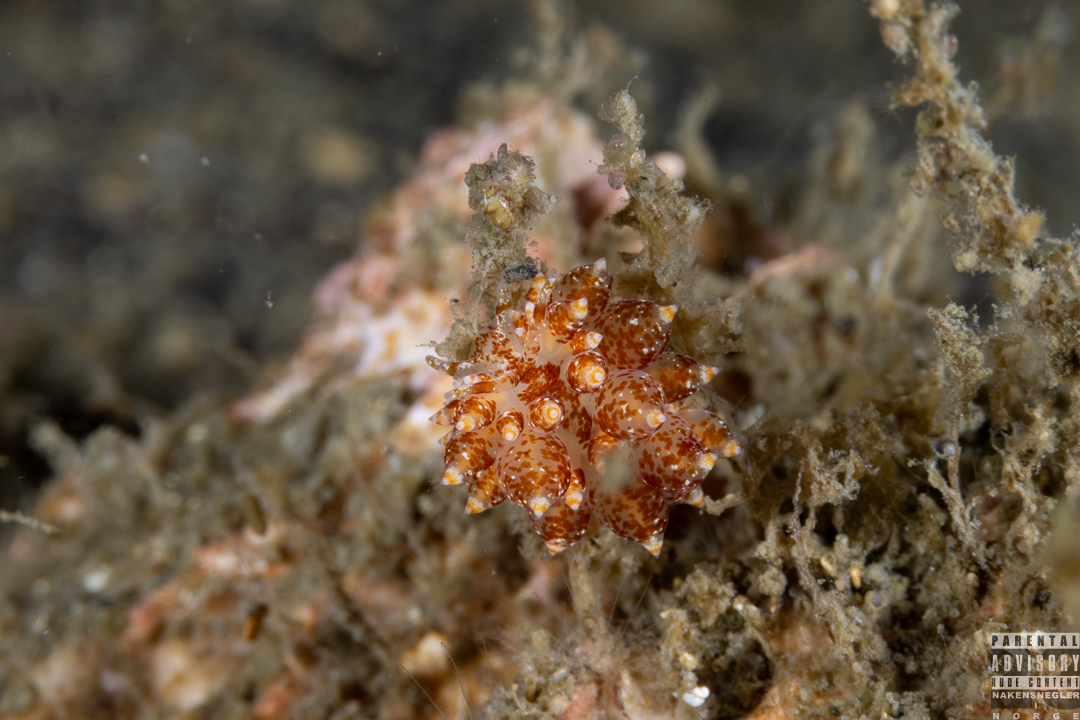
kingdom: Animalia
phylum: Mollusca
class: Gastropoda
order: Nudibranchia
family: Eubranchidae
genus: Amphorina
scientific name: Amphorina pallida
